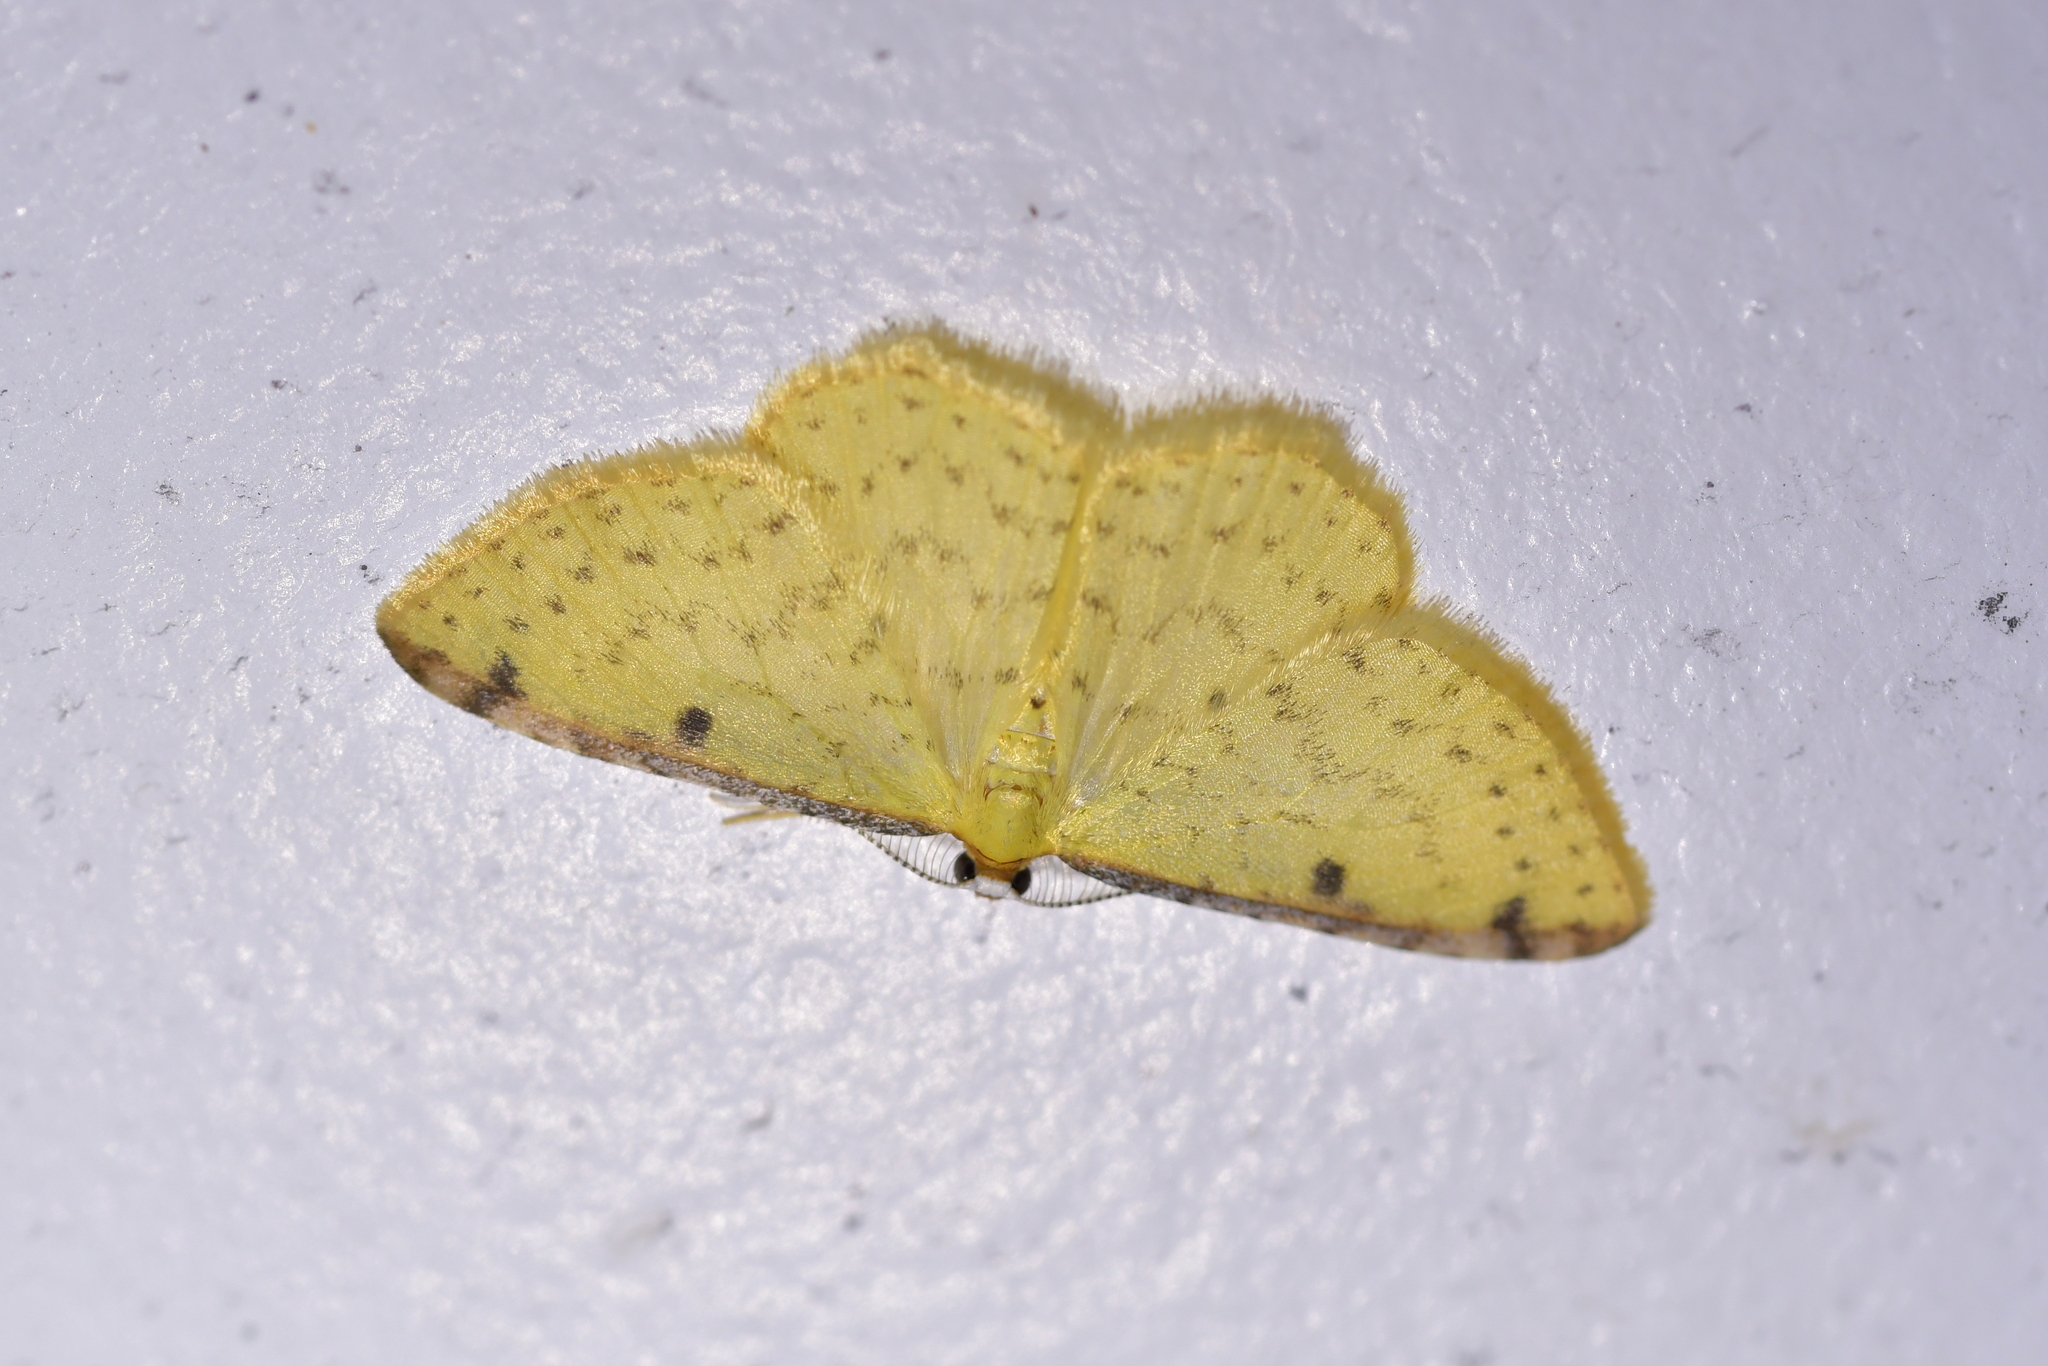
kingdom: Animalia
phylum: Arthropoda
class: Insecta
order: Lepidoptera
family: Geometridae
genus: Epiphryne
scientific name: Epiphryne undosata
